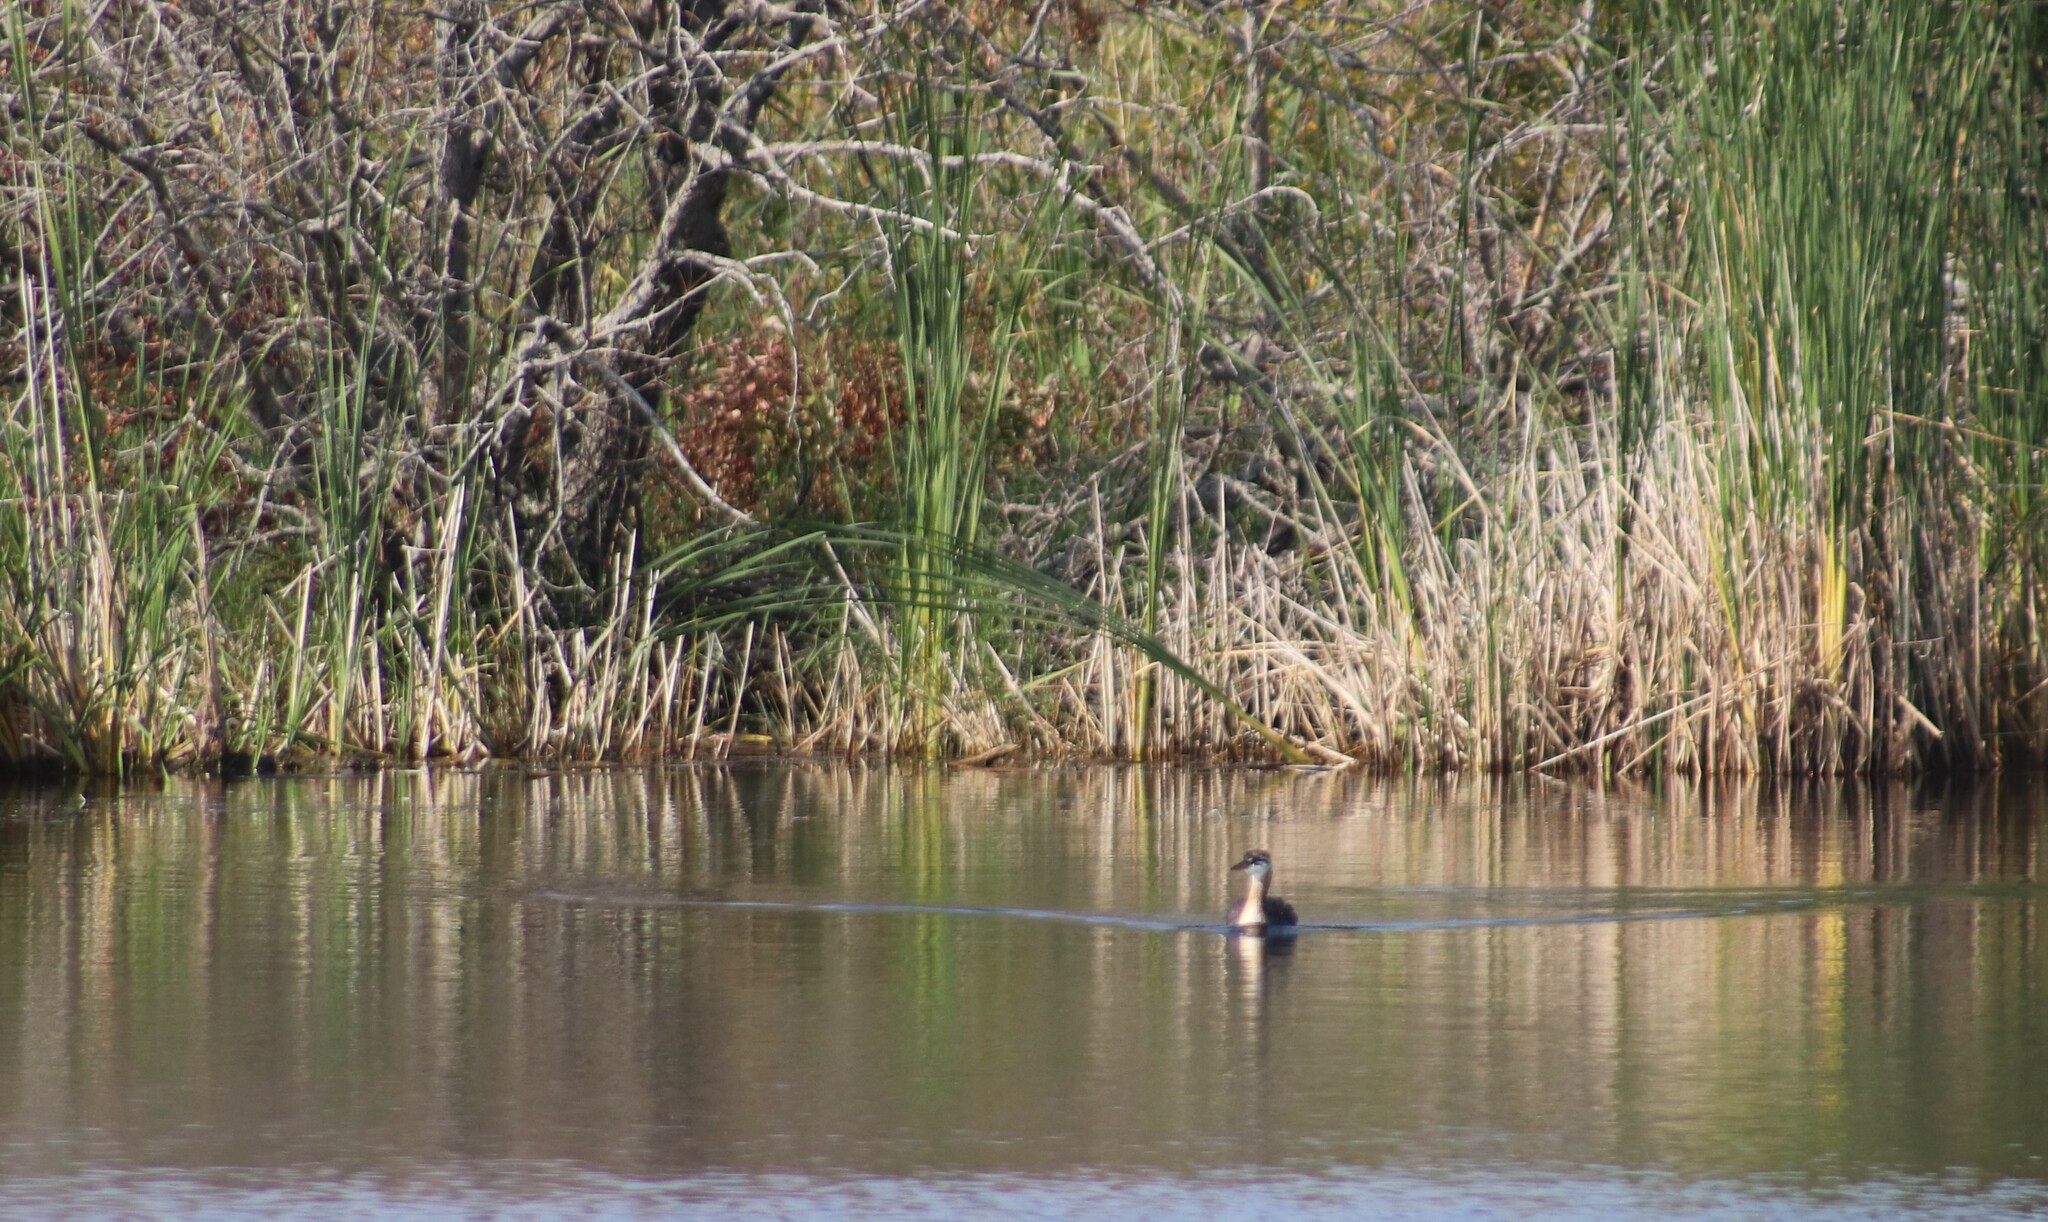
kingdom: Animalia
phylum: Chordata
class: Aves
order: Podicipediformes
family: Podicipedidae
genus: Podiceps
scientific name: Podiceps grisegena
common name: Red-necked grebe
